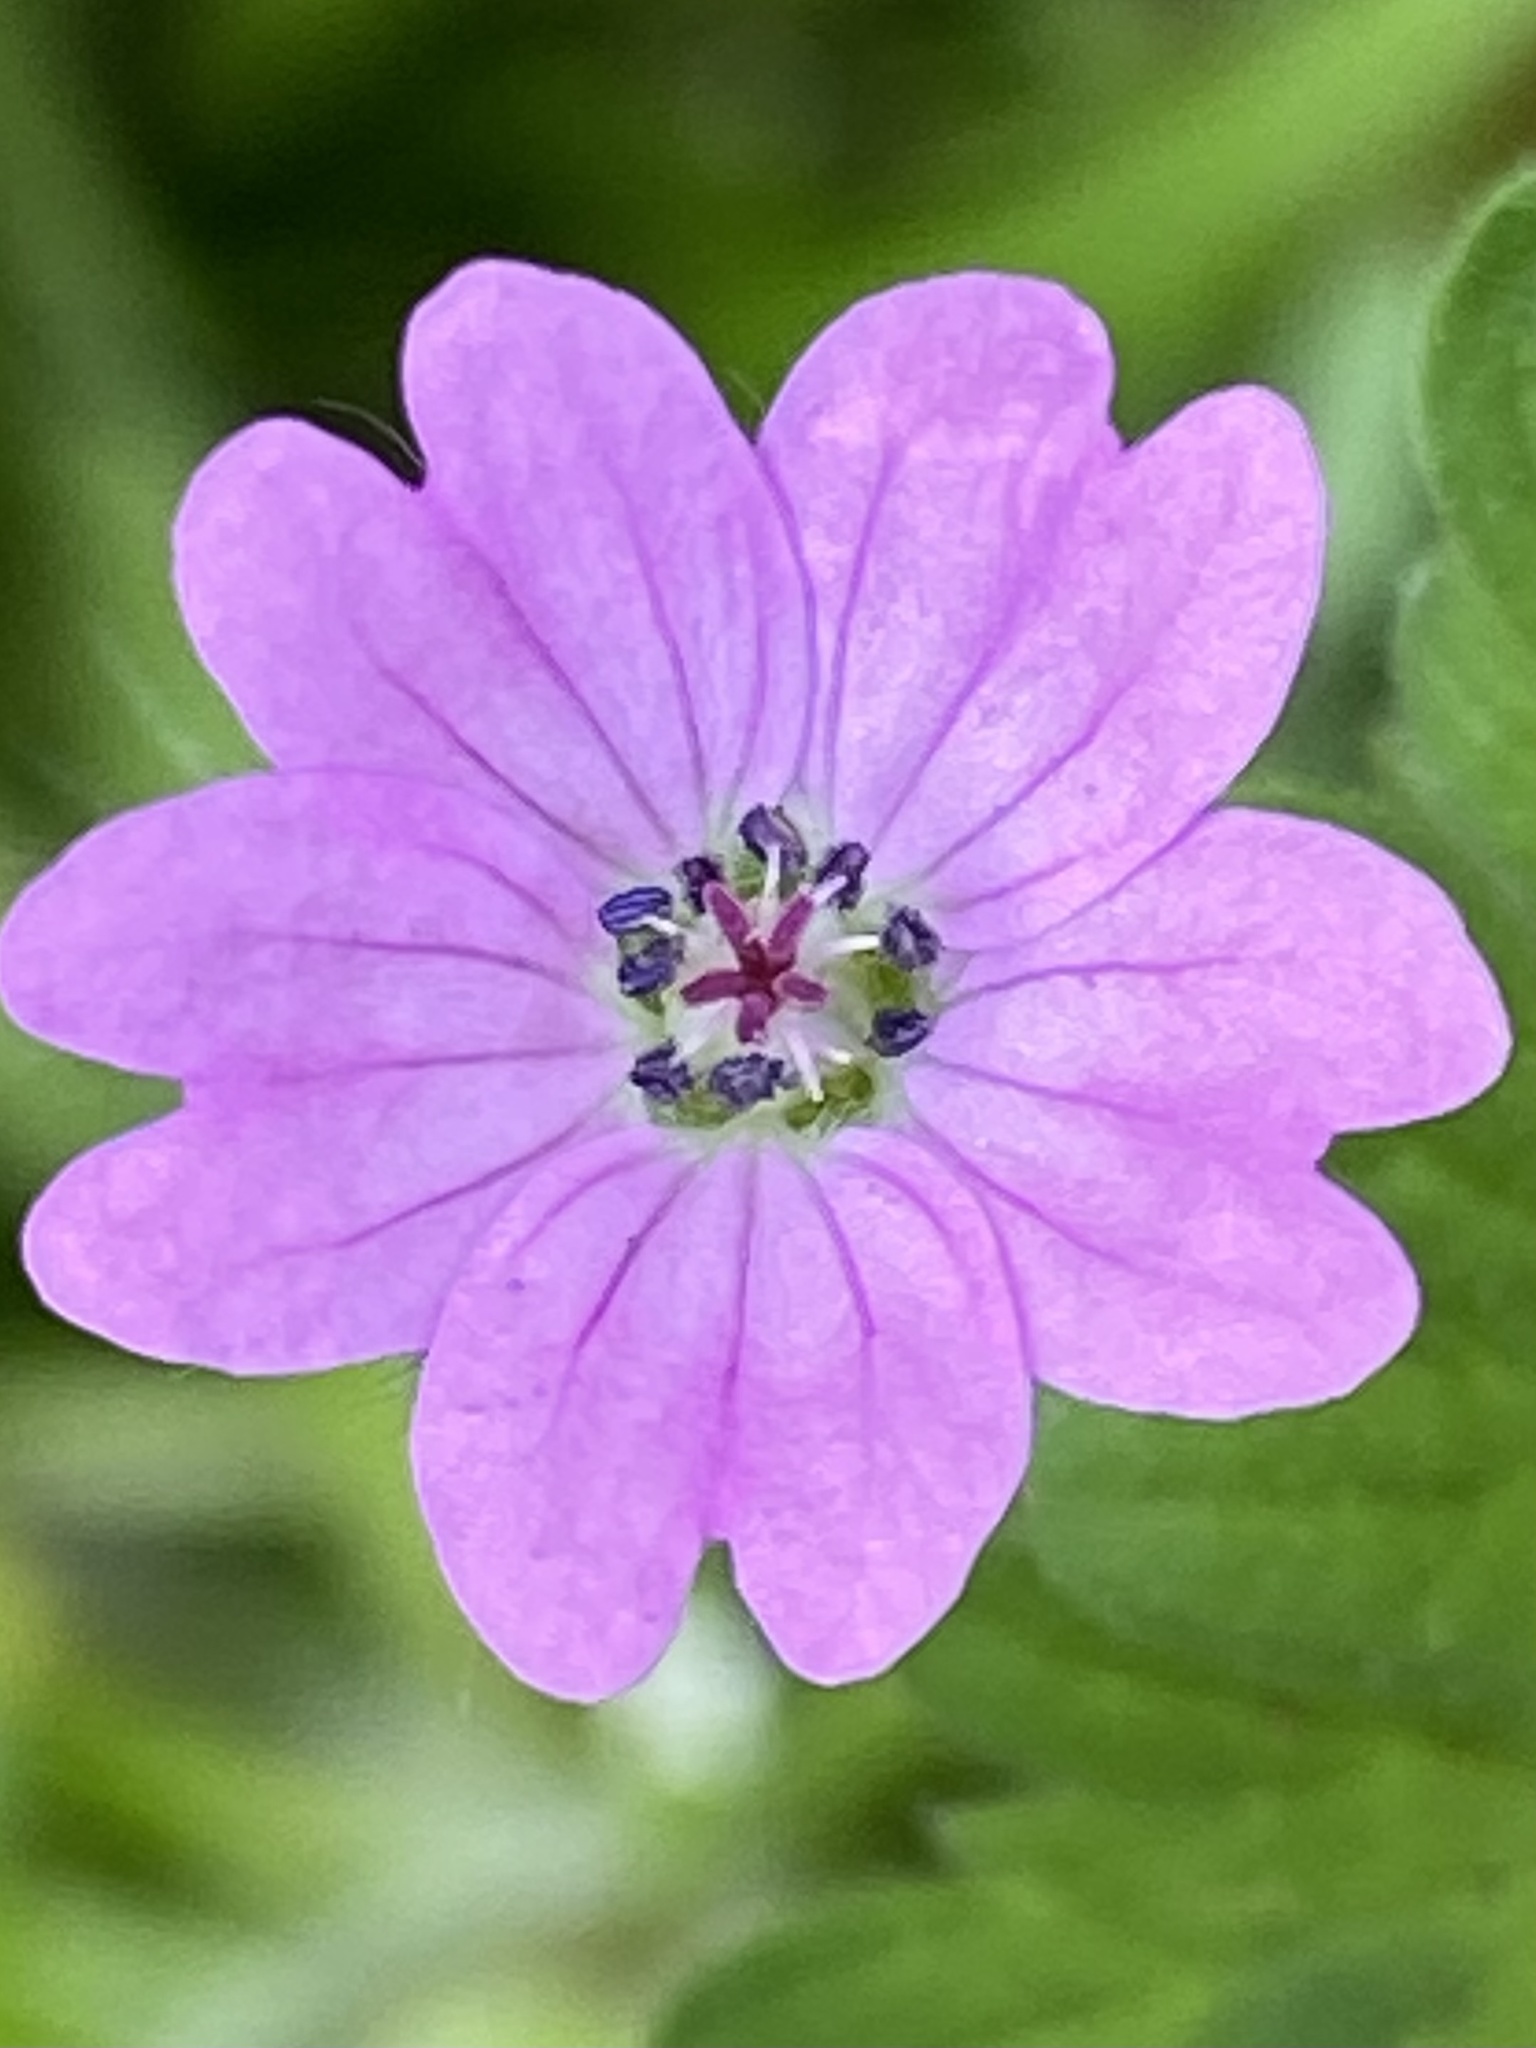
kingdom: Plantae
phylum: Tracheophyta
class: Magnoliopsida
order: Geraniales
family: Geraniaceae
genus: Geranium
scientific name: Geranium molle
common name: Dove's-foot crane's-bill
